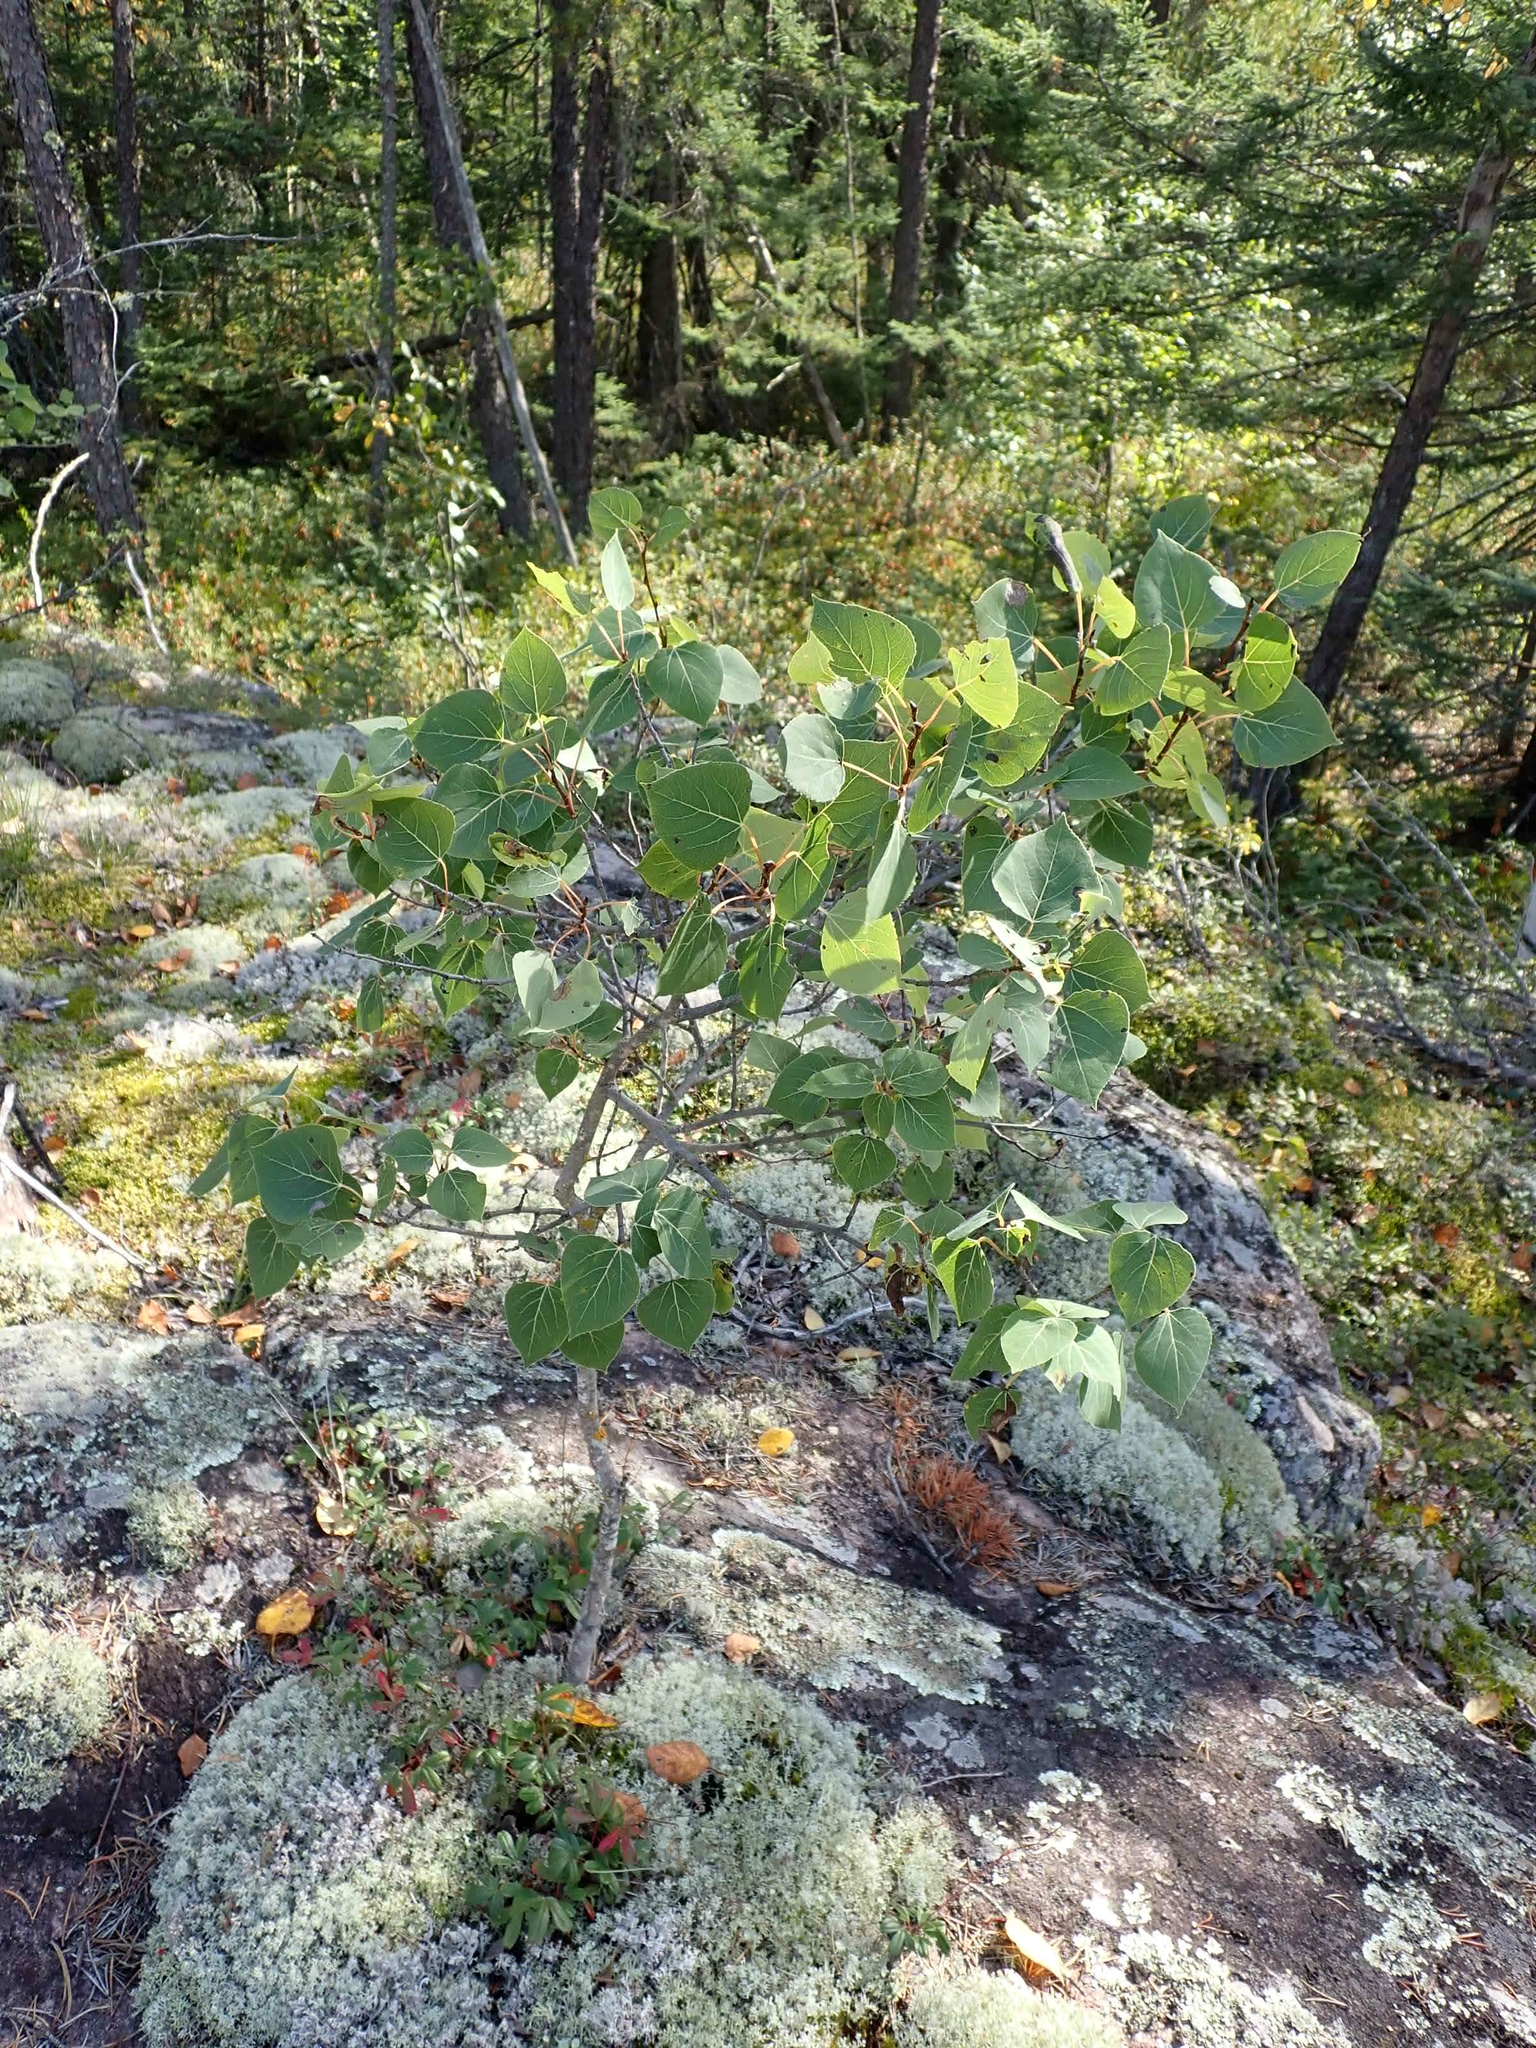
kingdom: Plantae
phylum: Tracheophyta
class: Magnoliopsida
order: Malpighiales
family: Salicaceae
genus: Populus
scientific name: Populus tremuloides
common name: Quaking aspen
